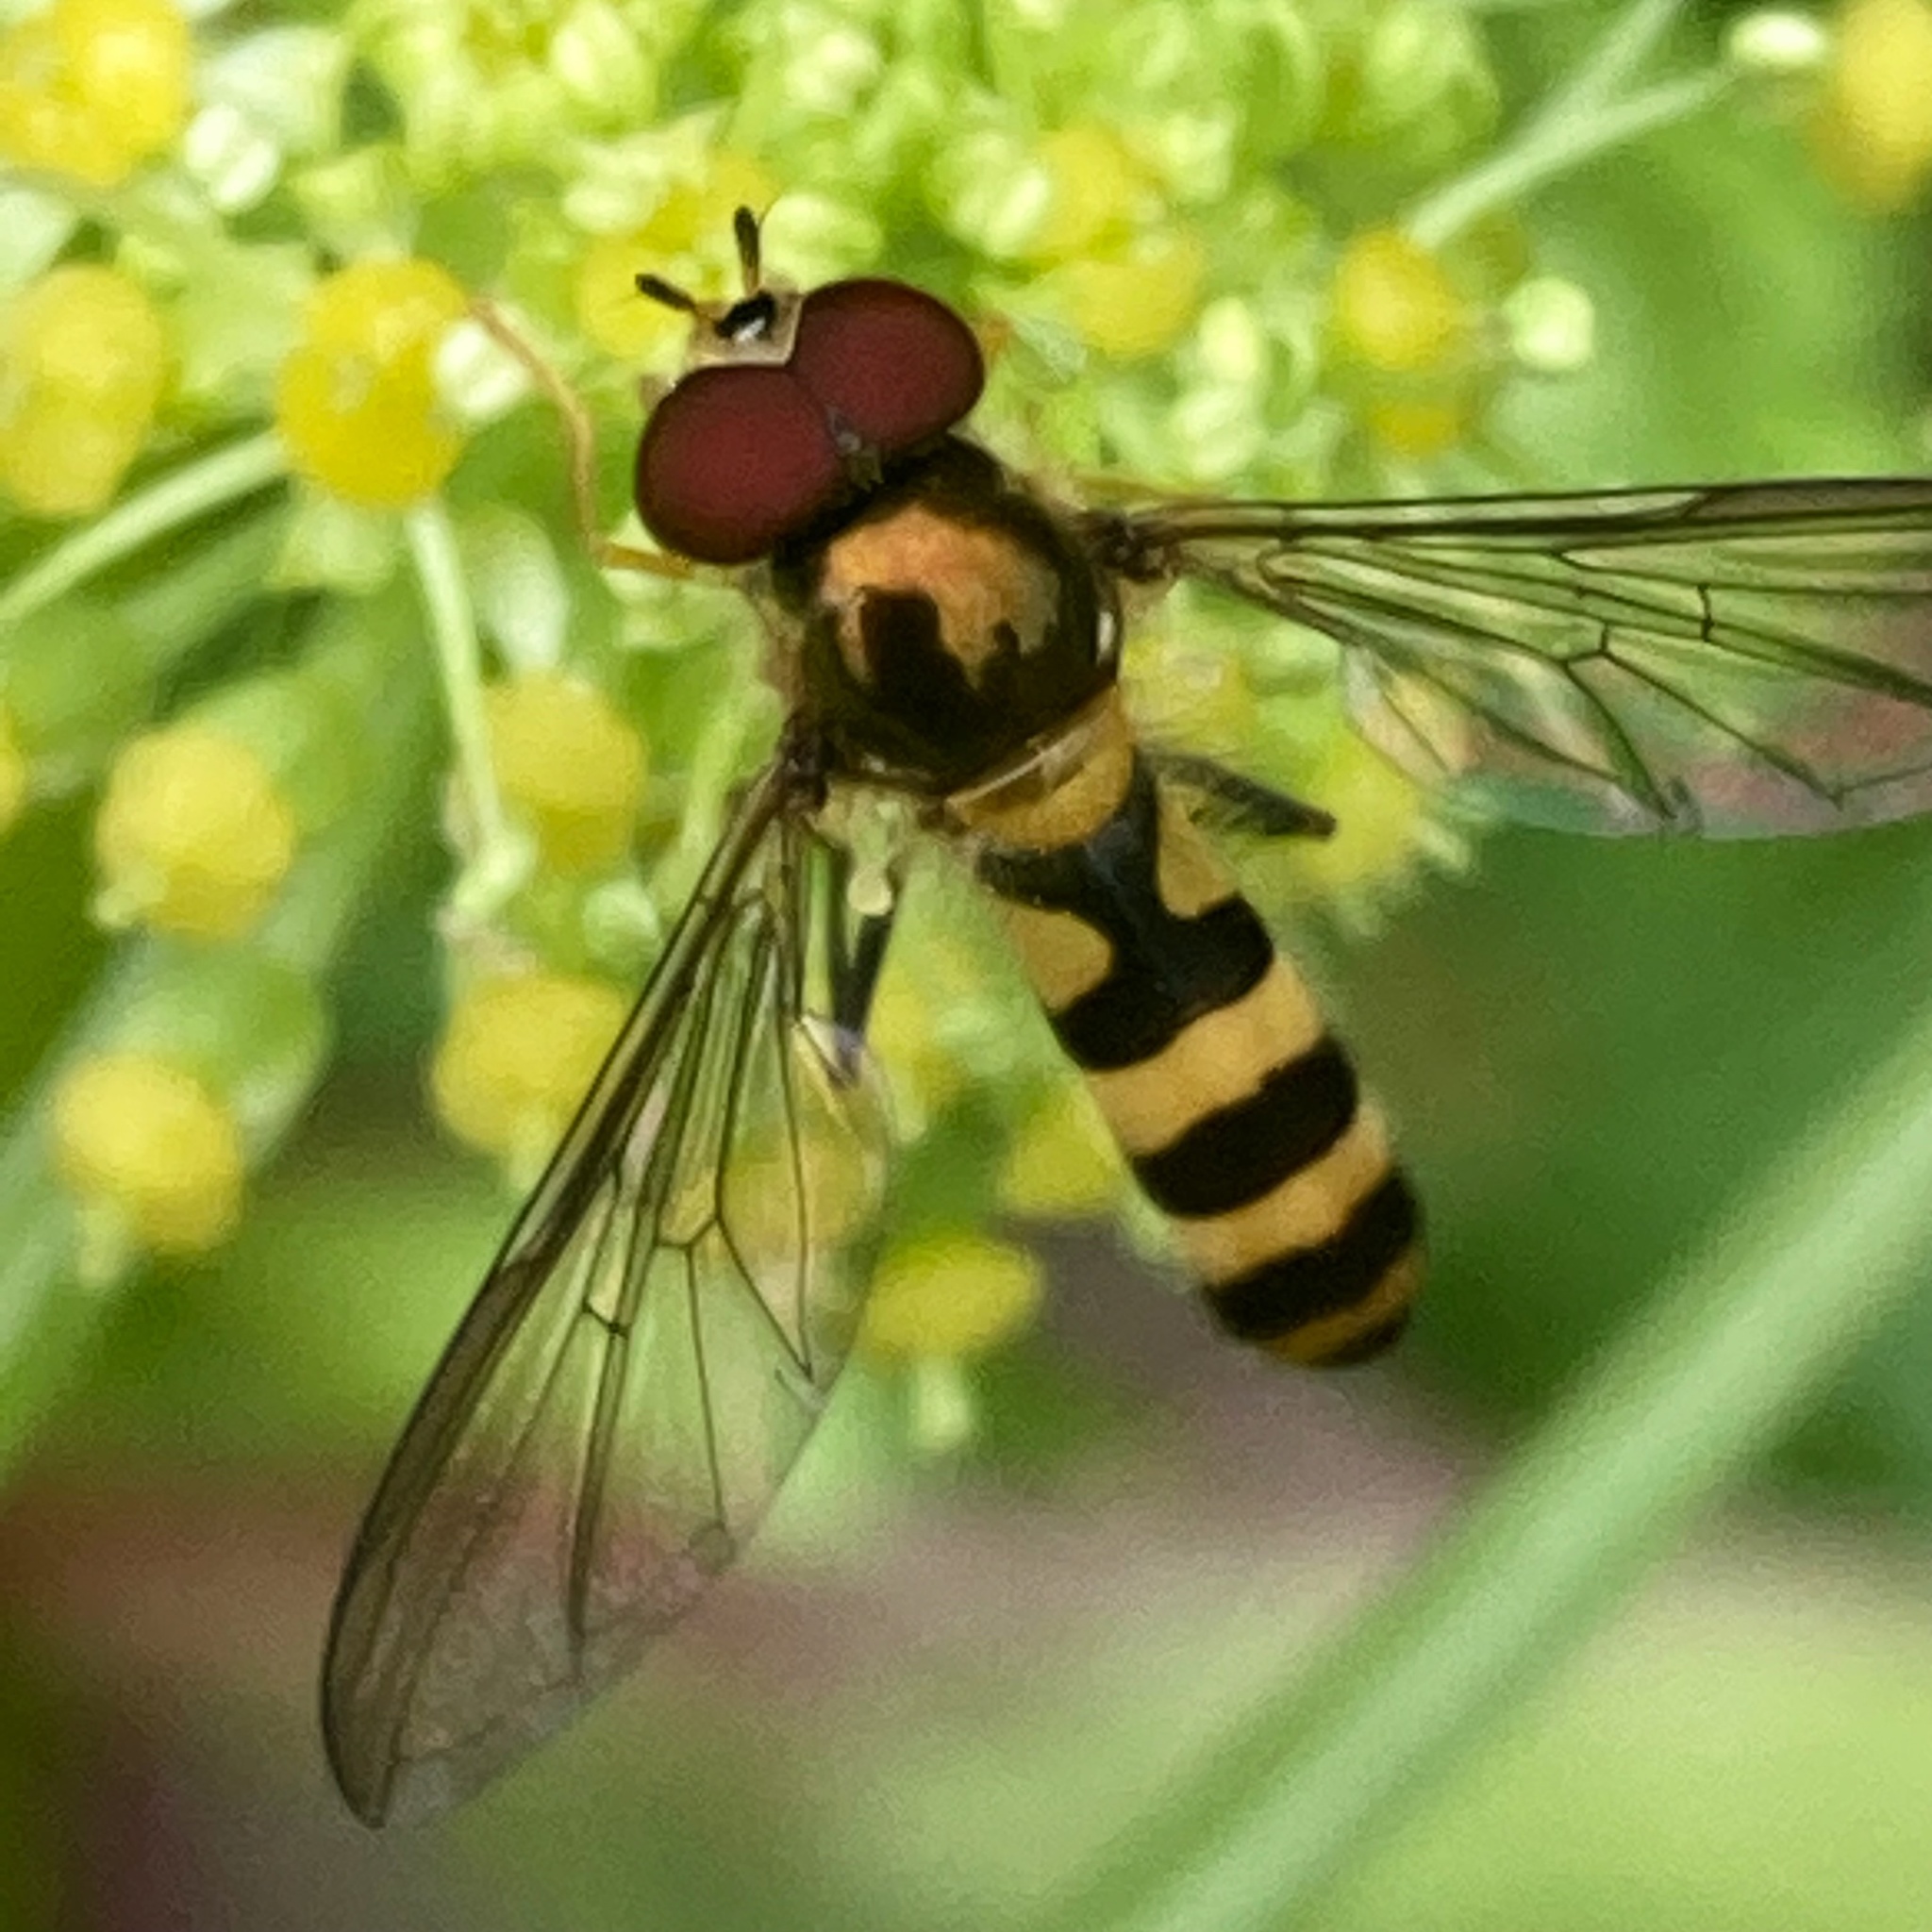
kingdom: Animalia
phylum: Arthropoda
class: Insecta
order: Diptera
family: Syrphidae
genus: Meliscaeva
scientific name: Meliscaeva cinctella
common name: American thintail fly
